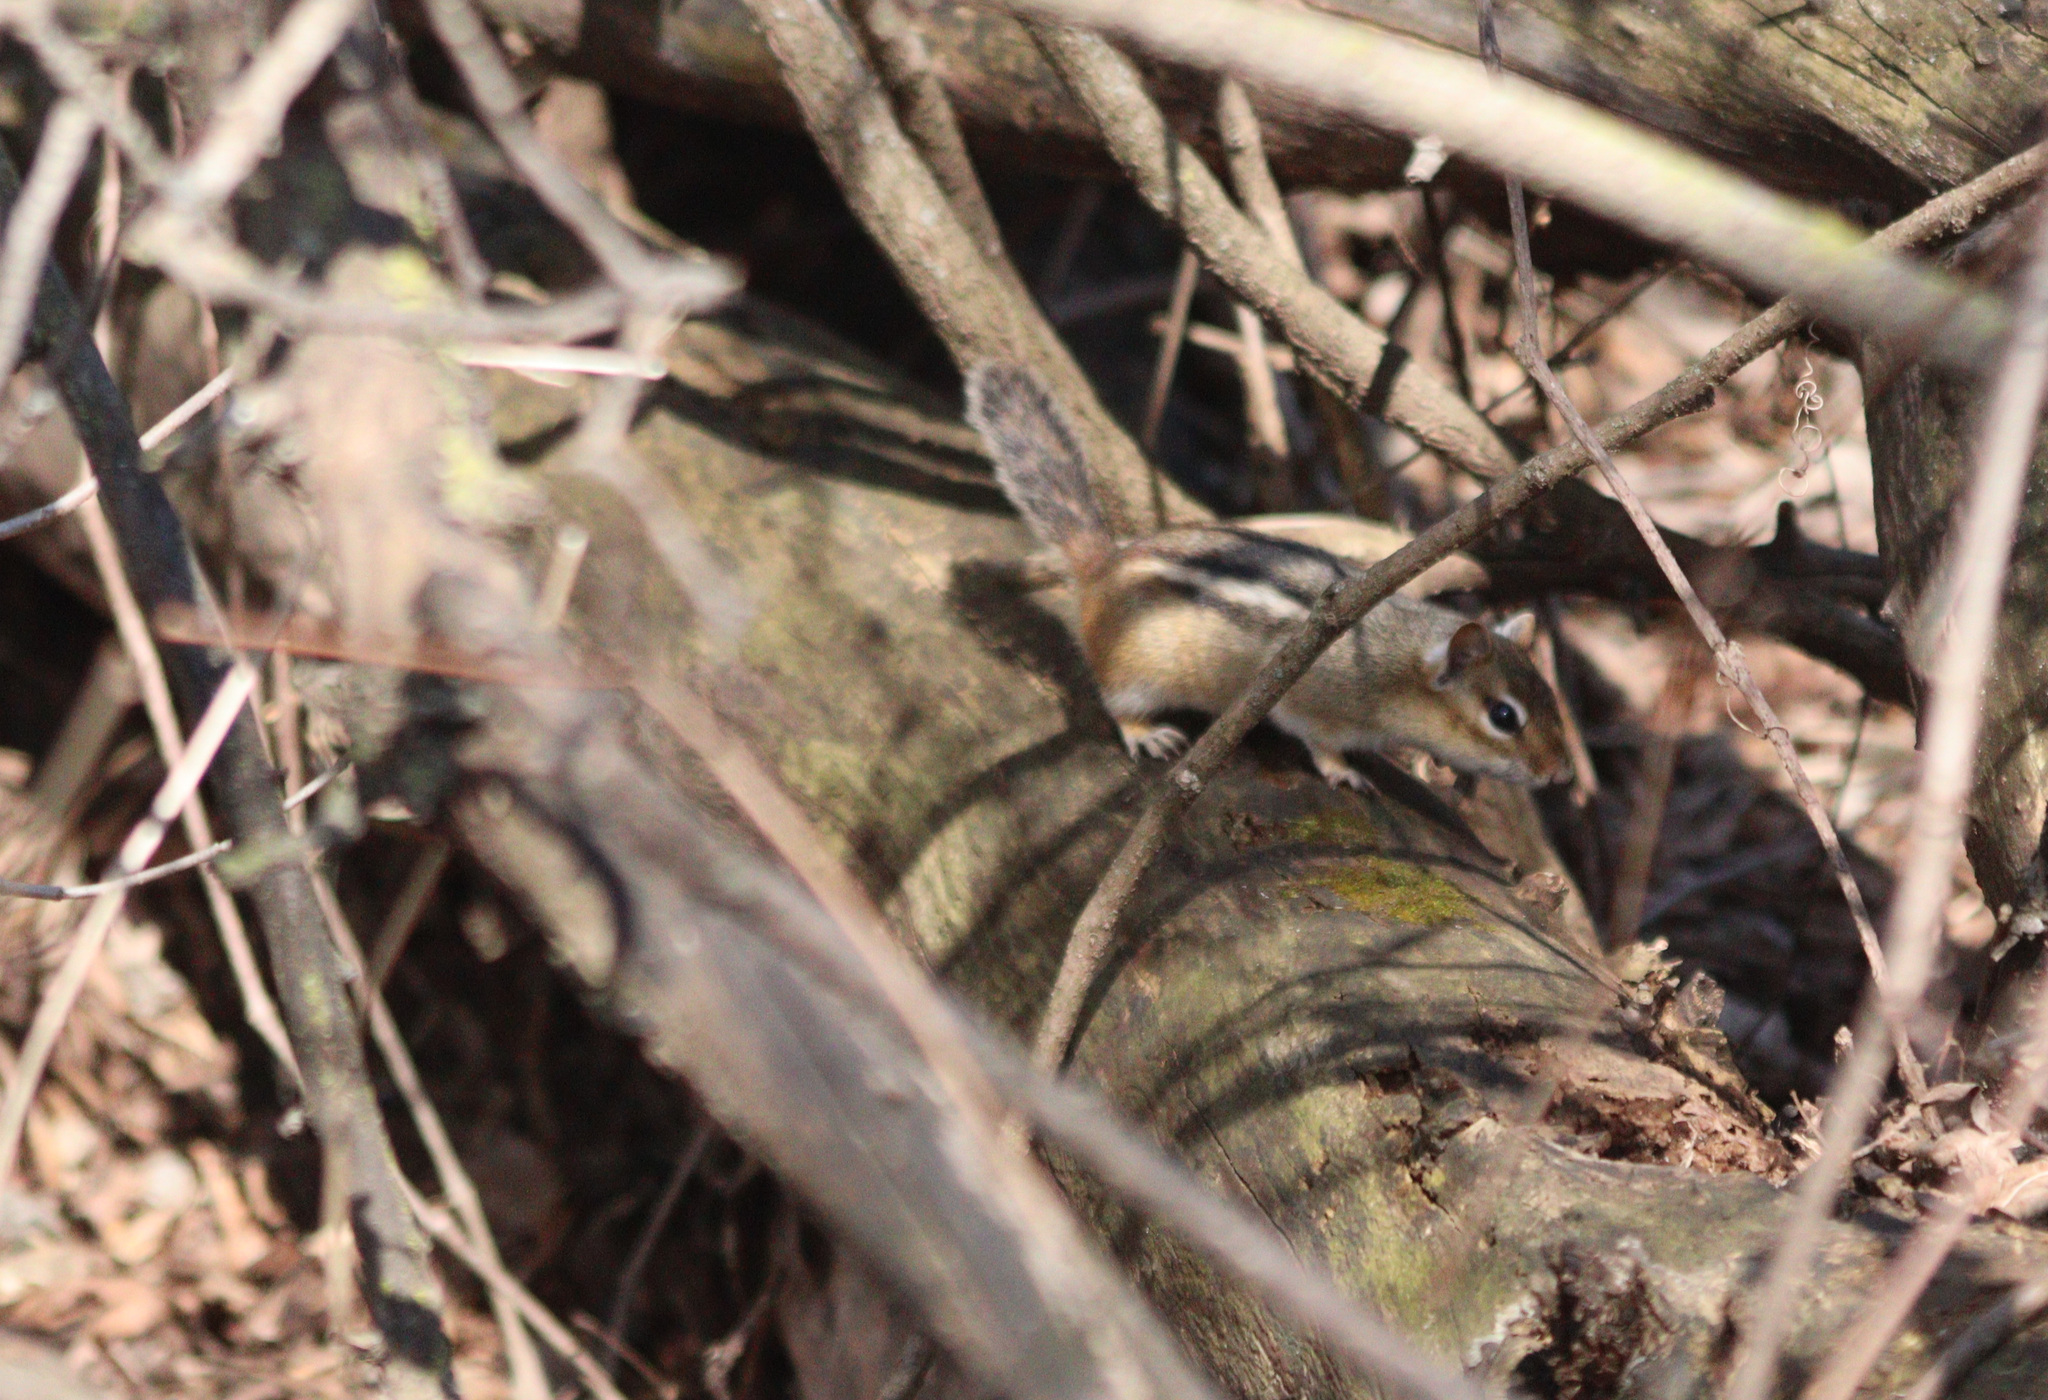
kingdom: Animalia
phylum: Chordata
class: Mammalia
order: Rodentia
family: Sciuridae
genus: Tamias
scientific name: Tamias striatus
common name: Eastern chipmunk
